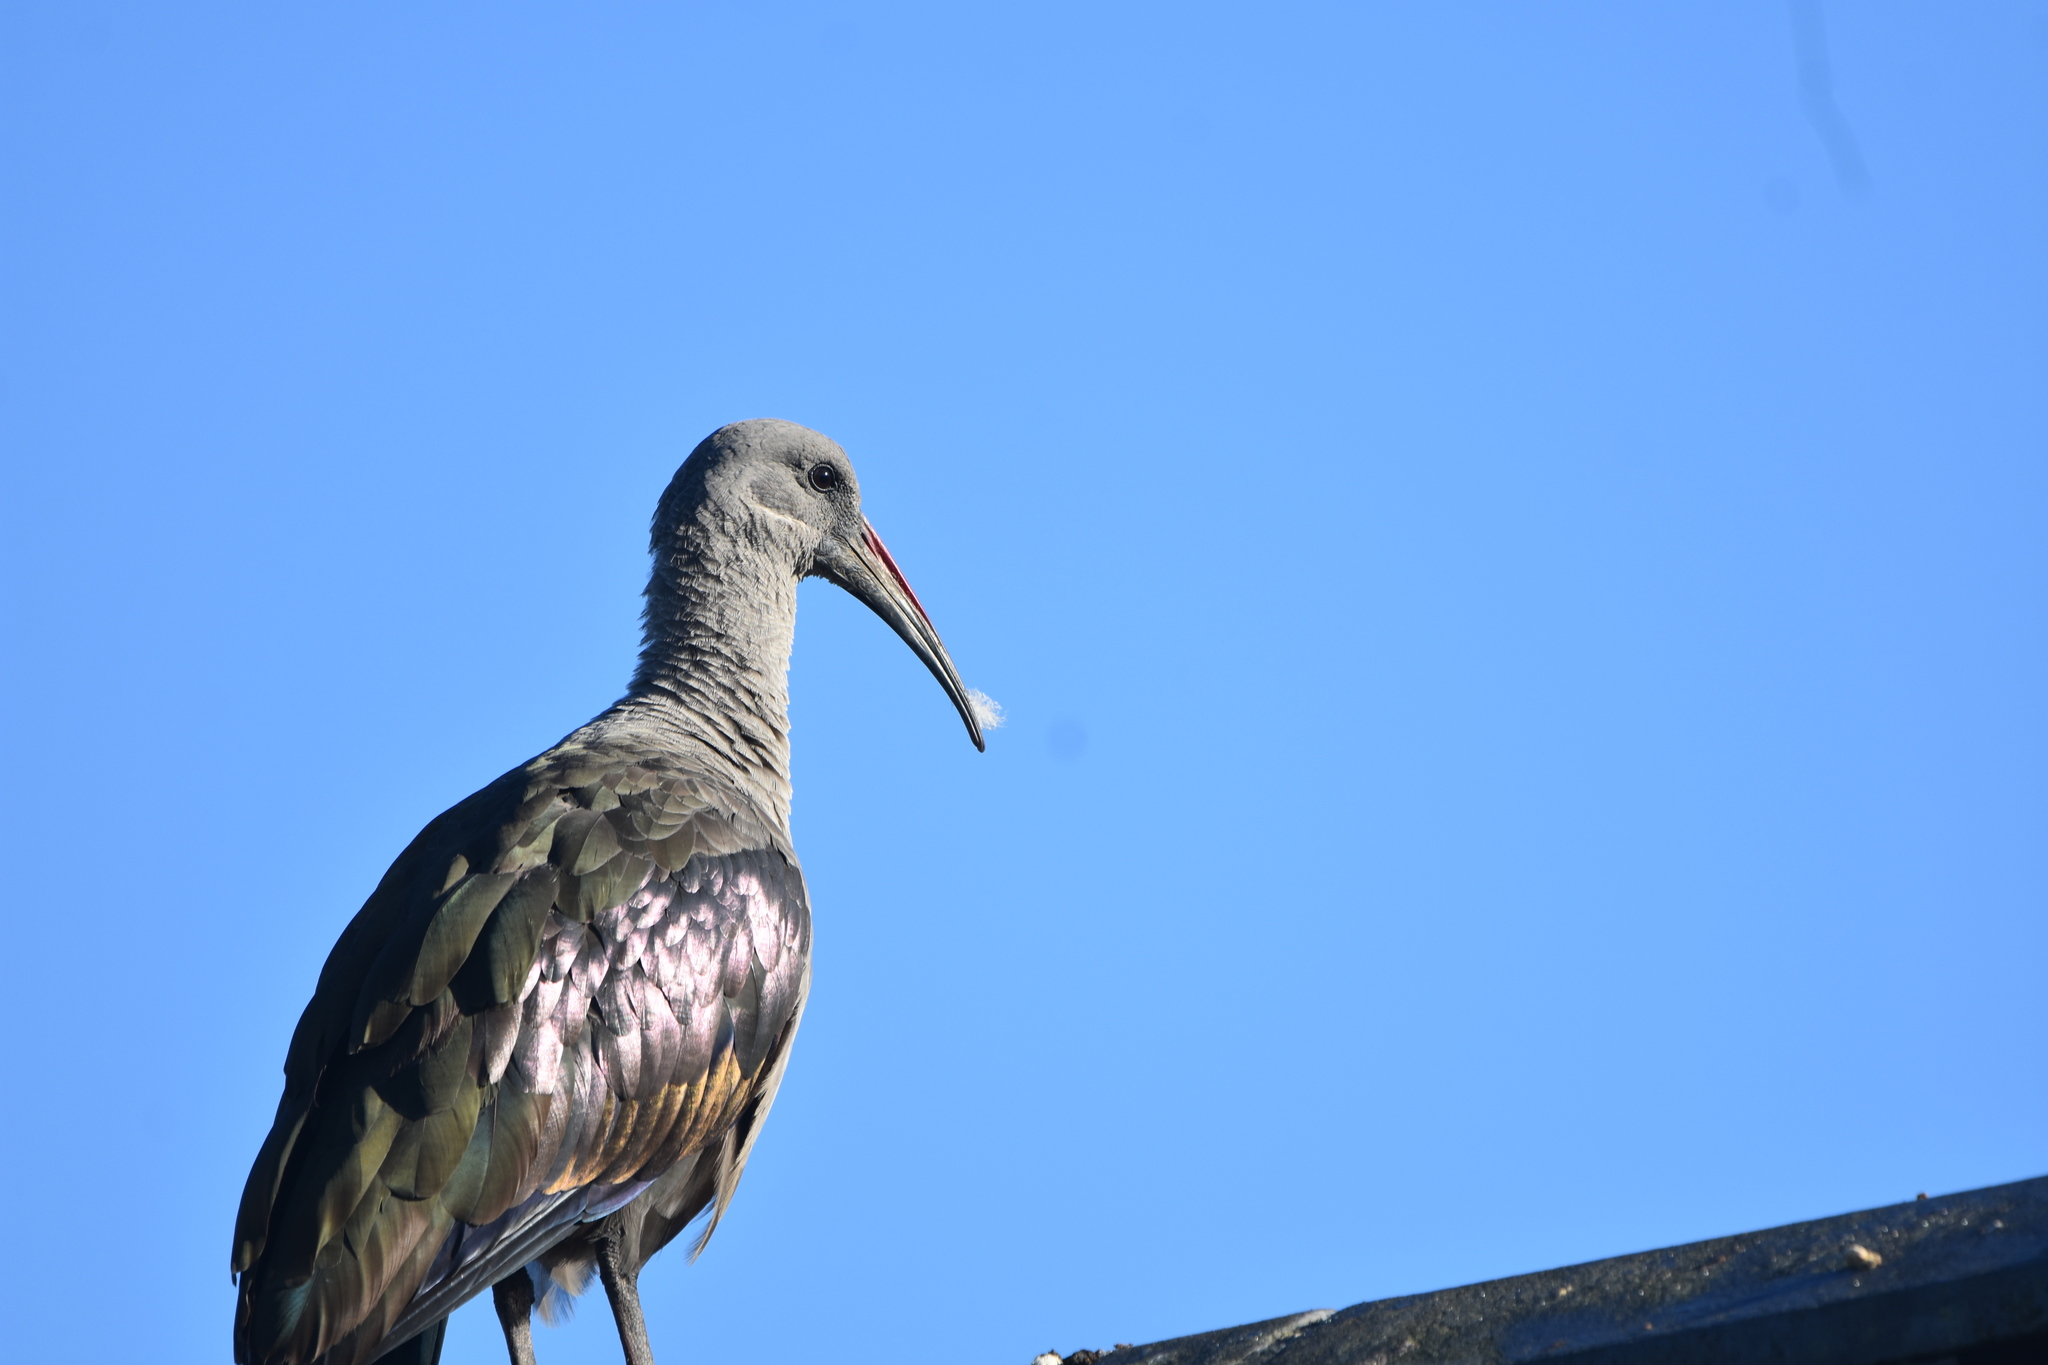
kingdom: Animalia
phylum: Chordata
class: Aves
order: Pelecaniformes
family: Threskiornithidae
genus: Bostrychia
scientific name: Bostrychia hagedash
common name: Hadada ibis
